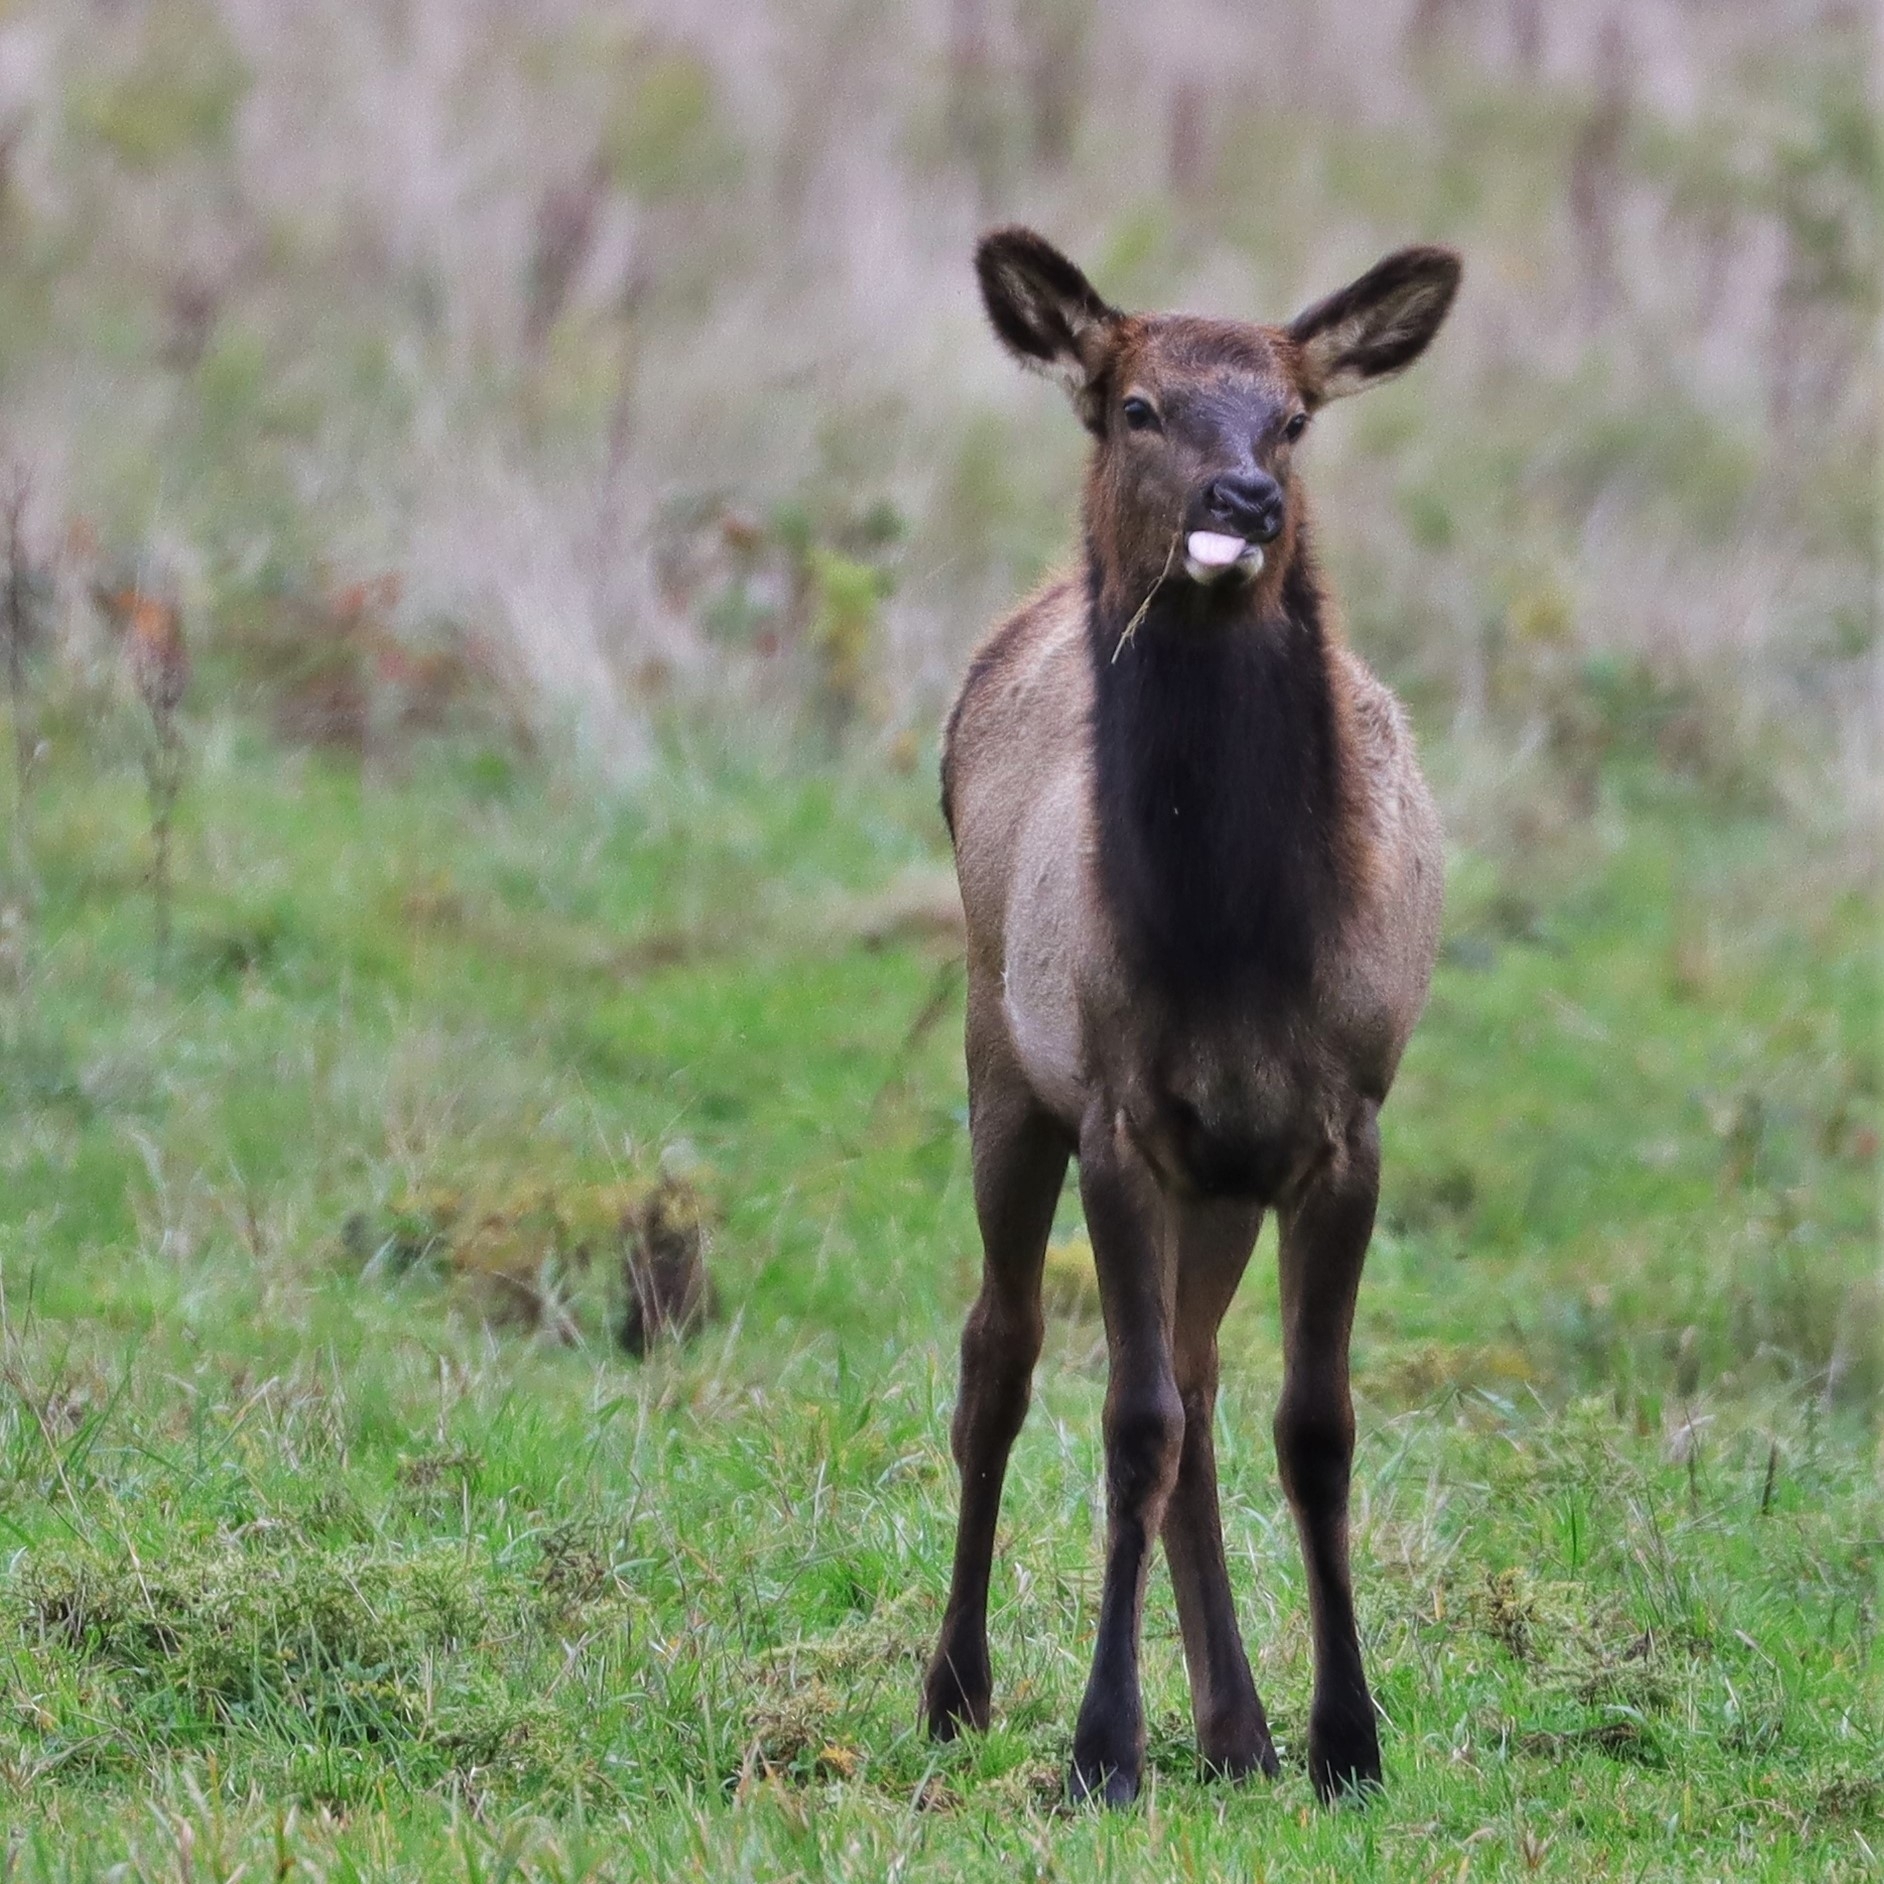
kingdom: Animalia
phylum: Chordata
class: Mammalia
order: Artiodactyla
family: Cervidae
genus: Cervus
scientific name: Cervus elaphus
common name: Red deer
